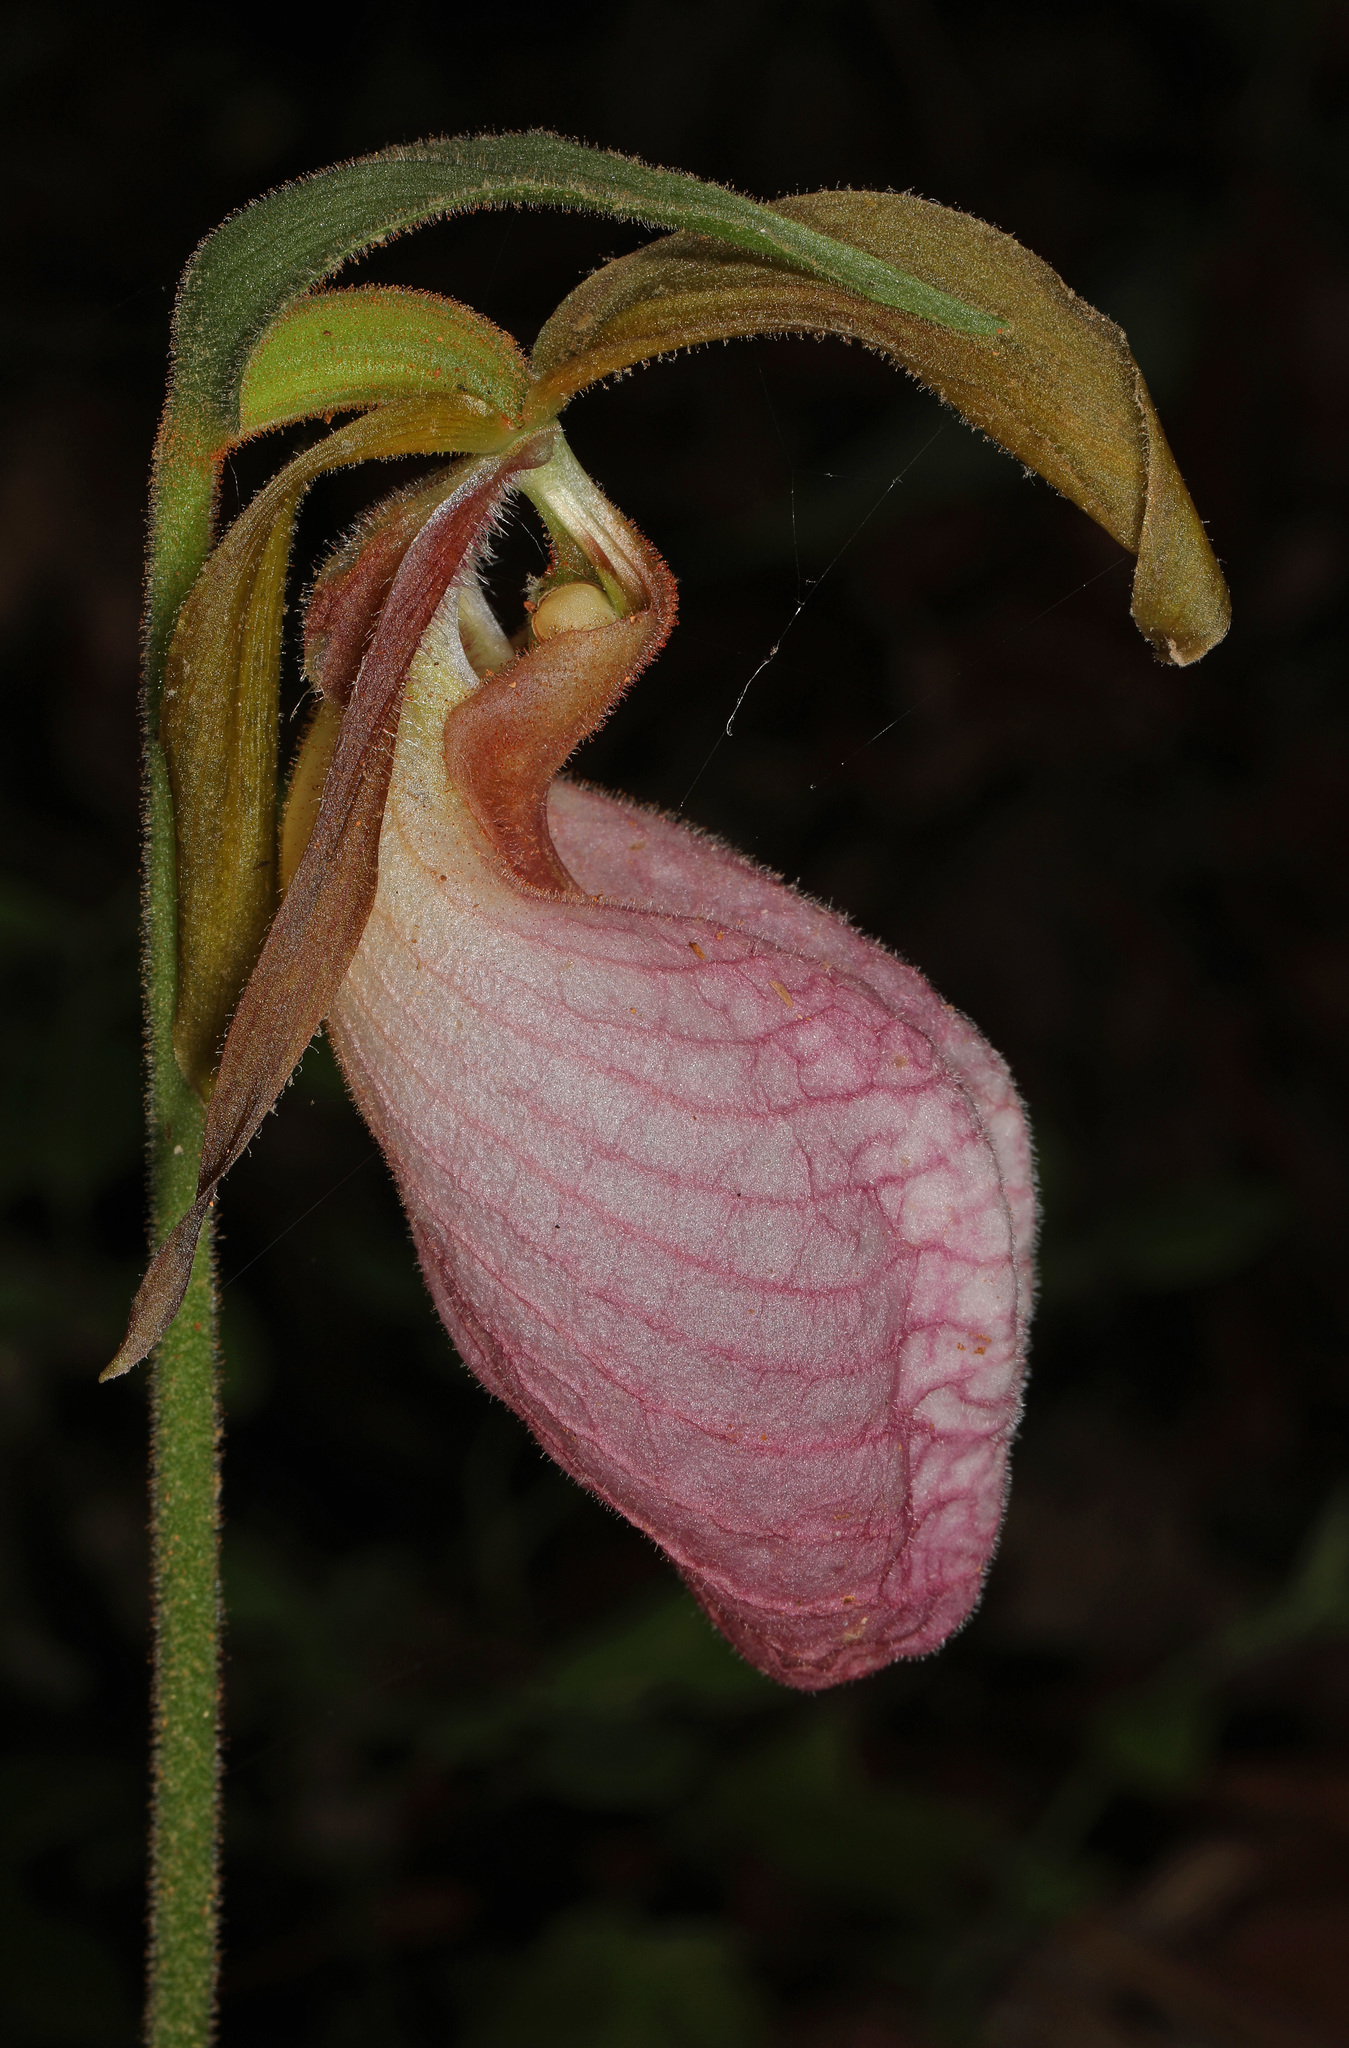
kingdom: Plantae
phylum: Tracheophyta
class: Liliopsida
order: Asparagales
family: Orchidaceae
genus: Cypripedium
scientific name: Cypripedium acaule
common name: Pink lady's-slipper
